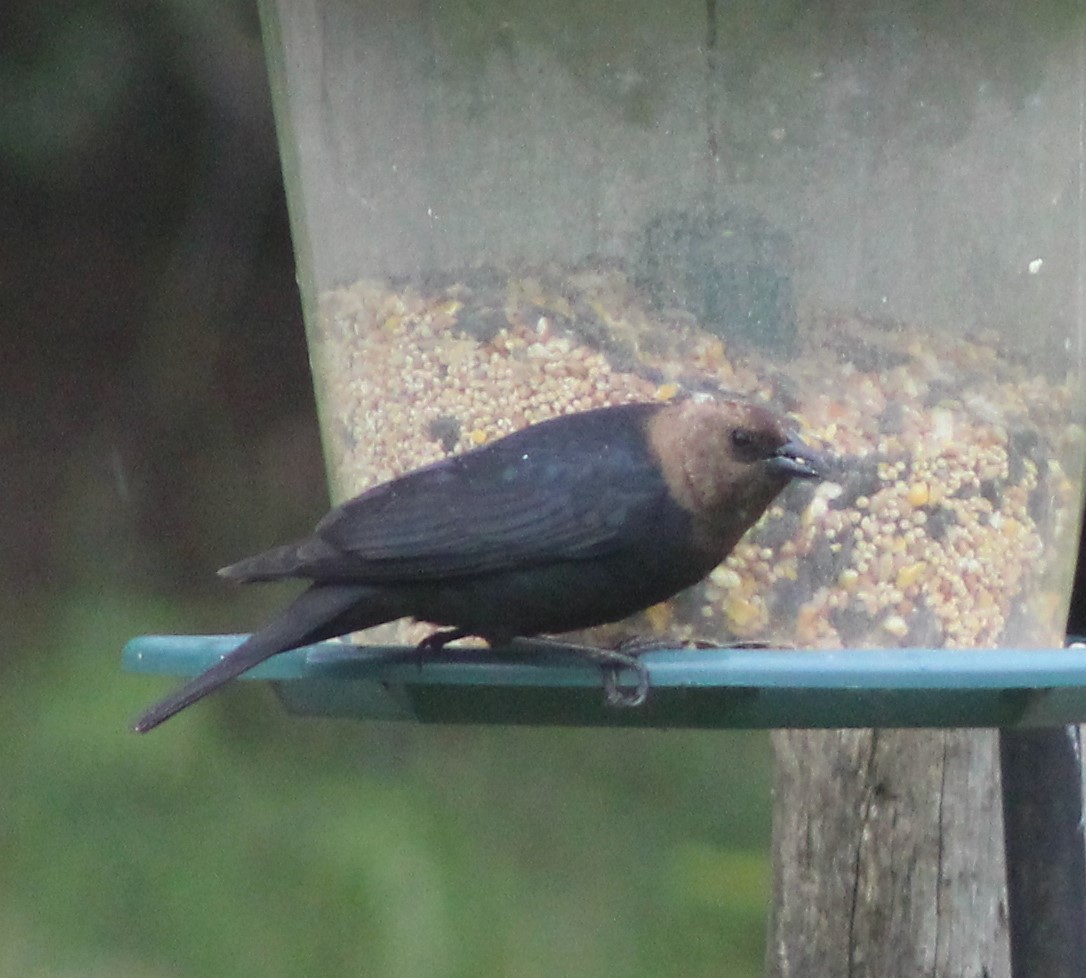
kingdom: Animalia
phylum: Chordata
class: Aves
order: Passeriformes
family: Icteridae
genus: Molothrus
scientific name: Molothrus ater
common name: Brown-headed cowbird
